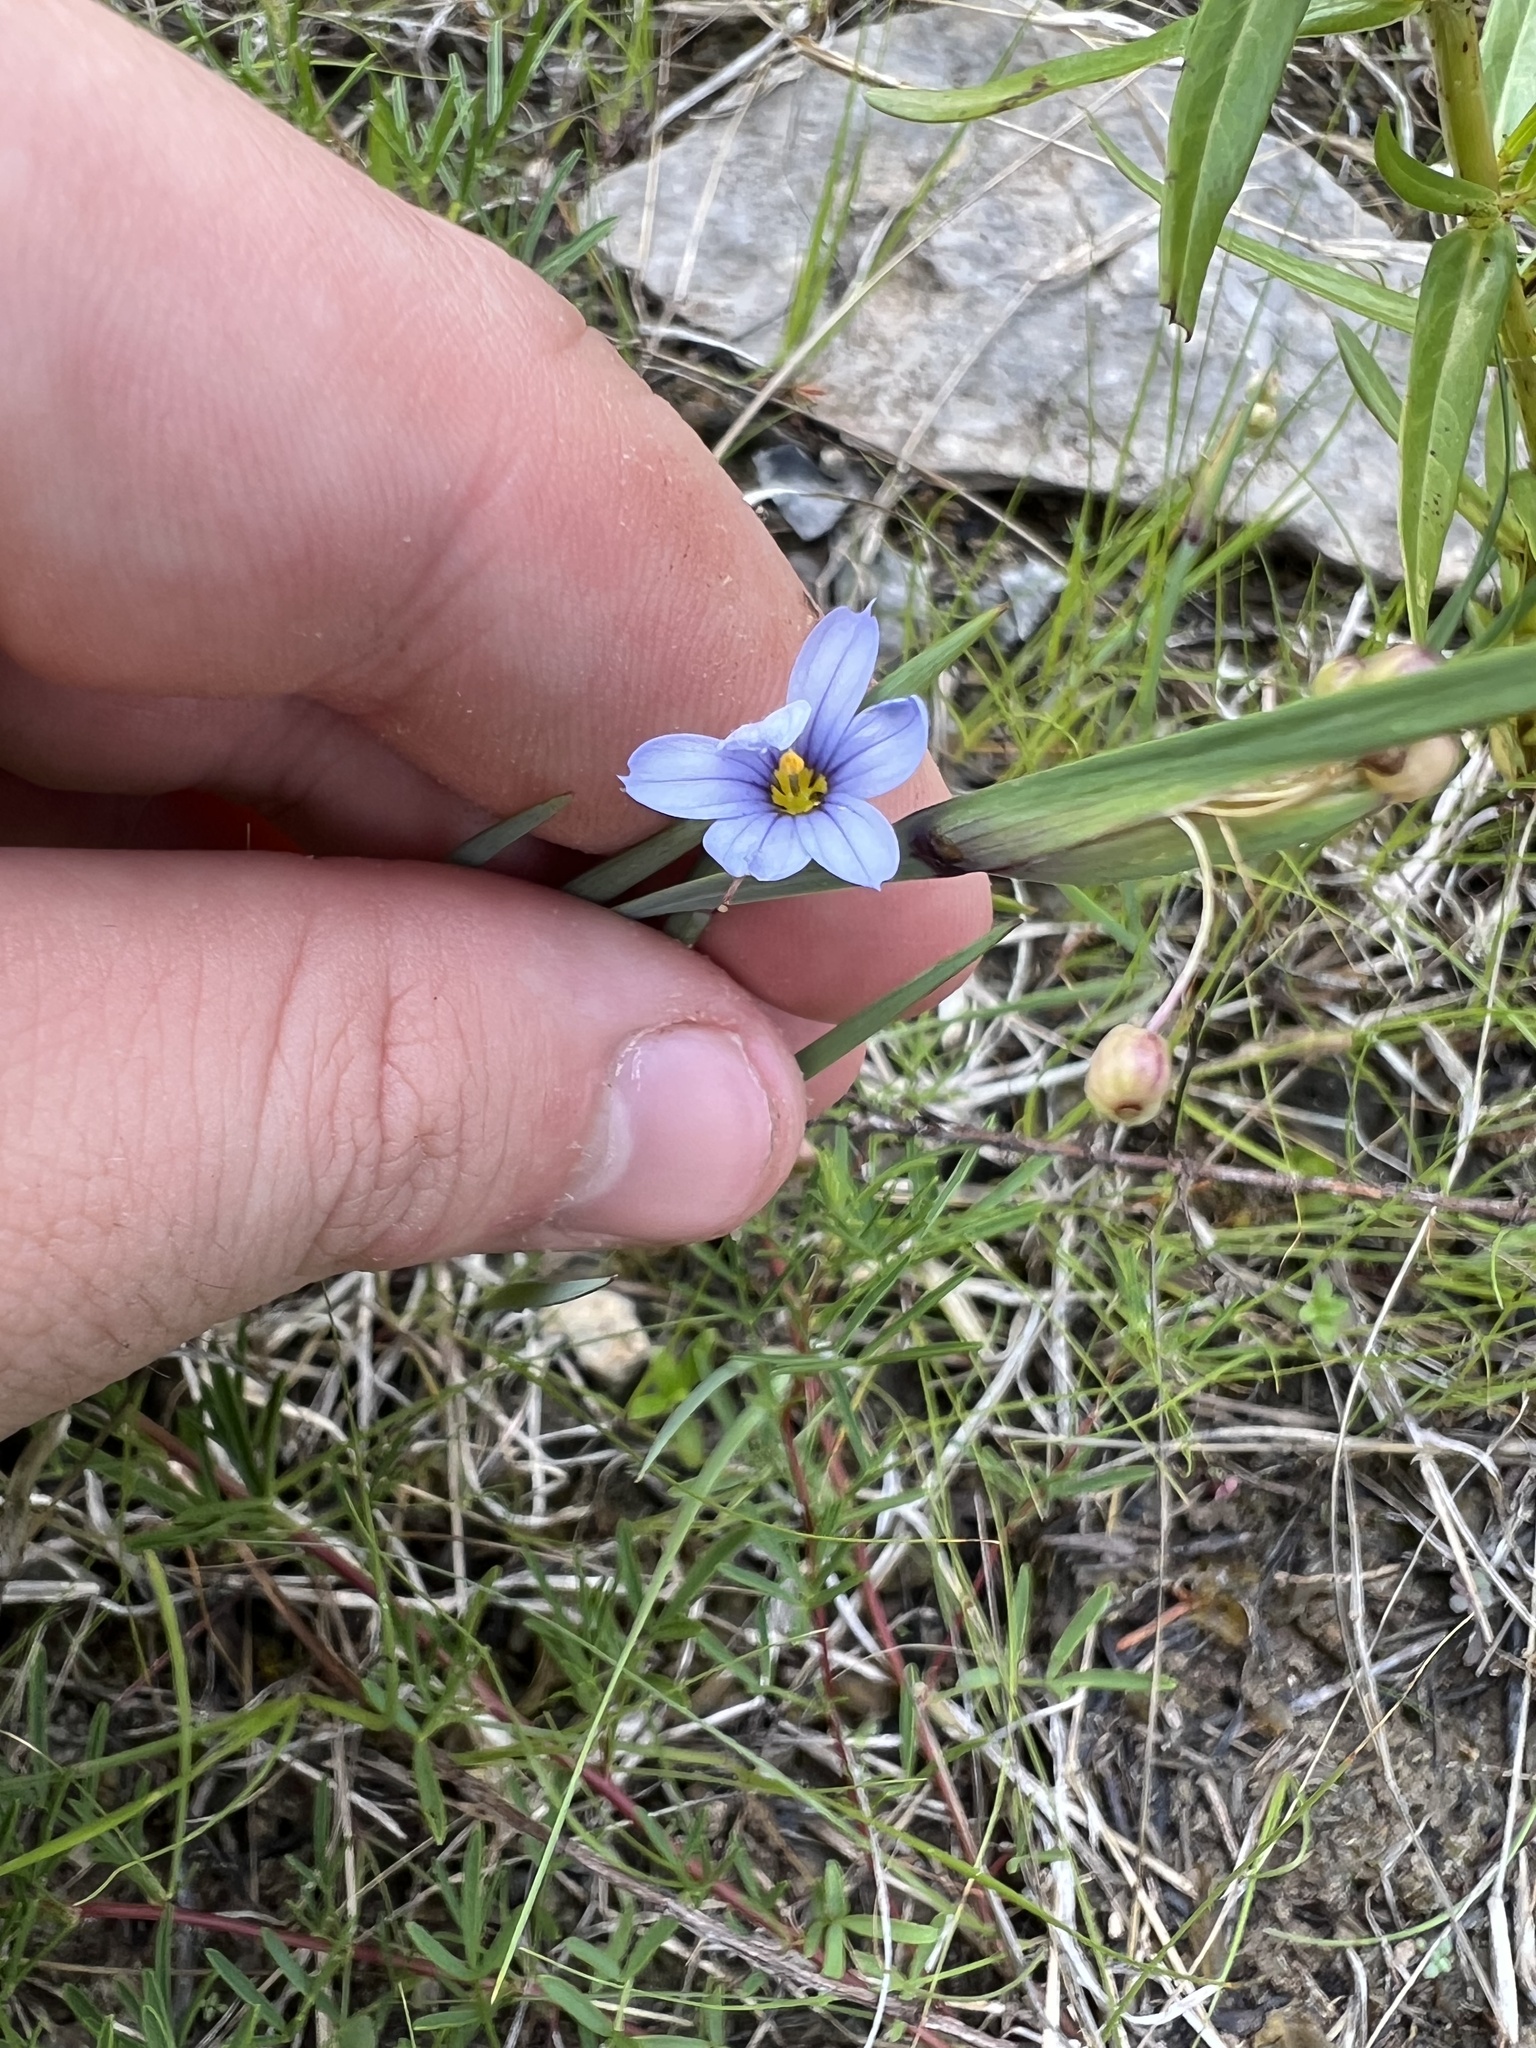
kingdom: Plantae
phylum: Tracheophyta
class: Liliopsida
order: Asparagales
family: Iridaceae
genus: Sisyrinchium
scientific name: Sisyrinchium albidum
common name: Pale blue-eyed-grass
